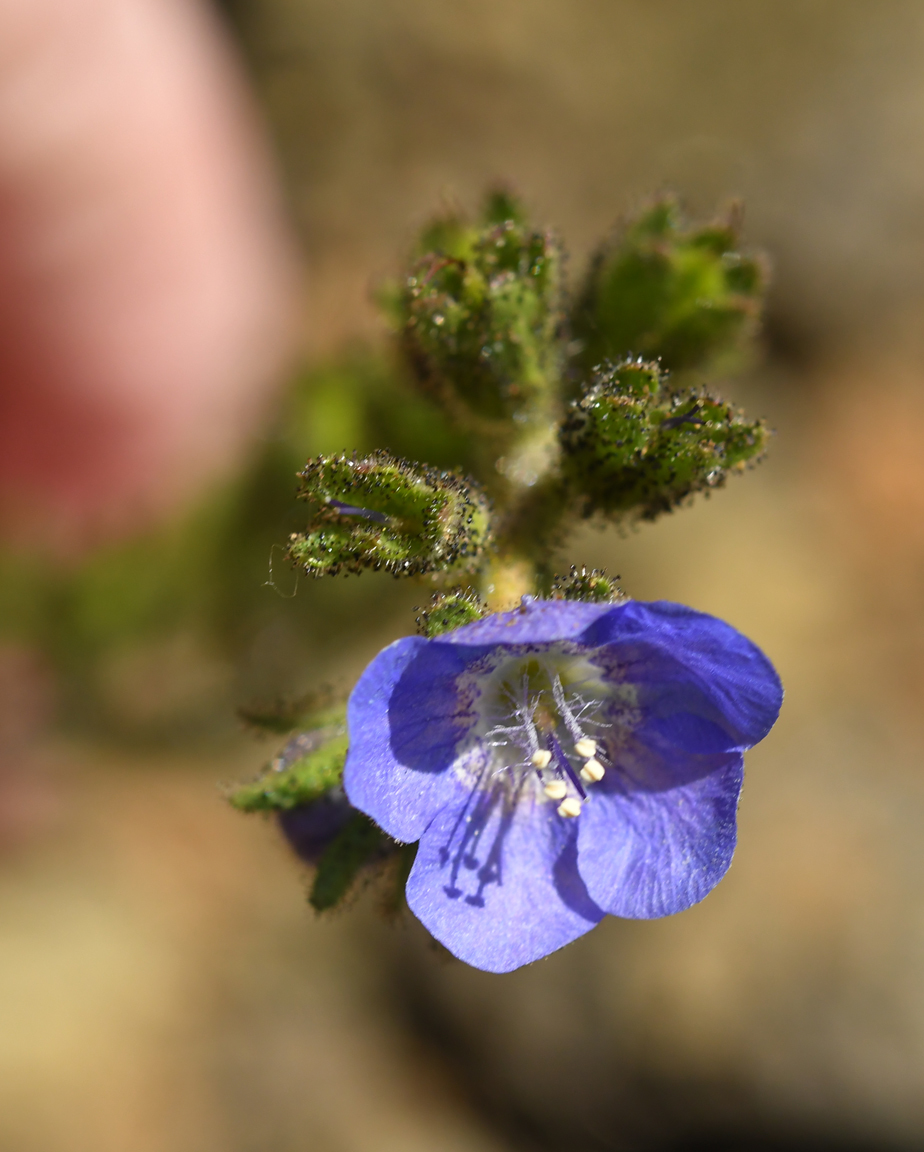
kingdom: Plantae
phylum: Tracheophyta
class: Magnoliopsida
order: Boraginales
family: Hydrophyllaceae
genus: Phacelia
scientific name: Phacelia viscida
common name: Sticky phacelia
